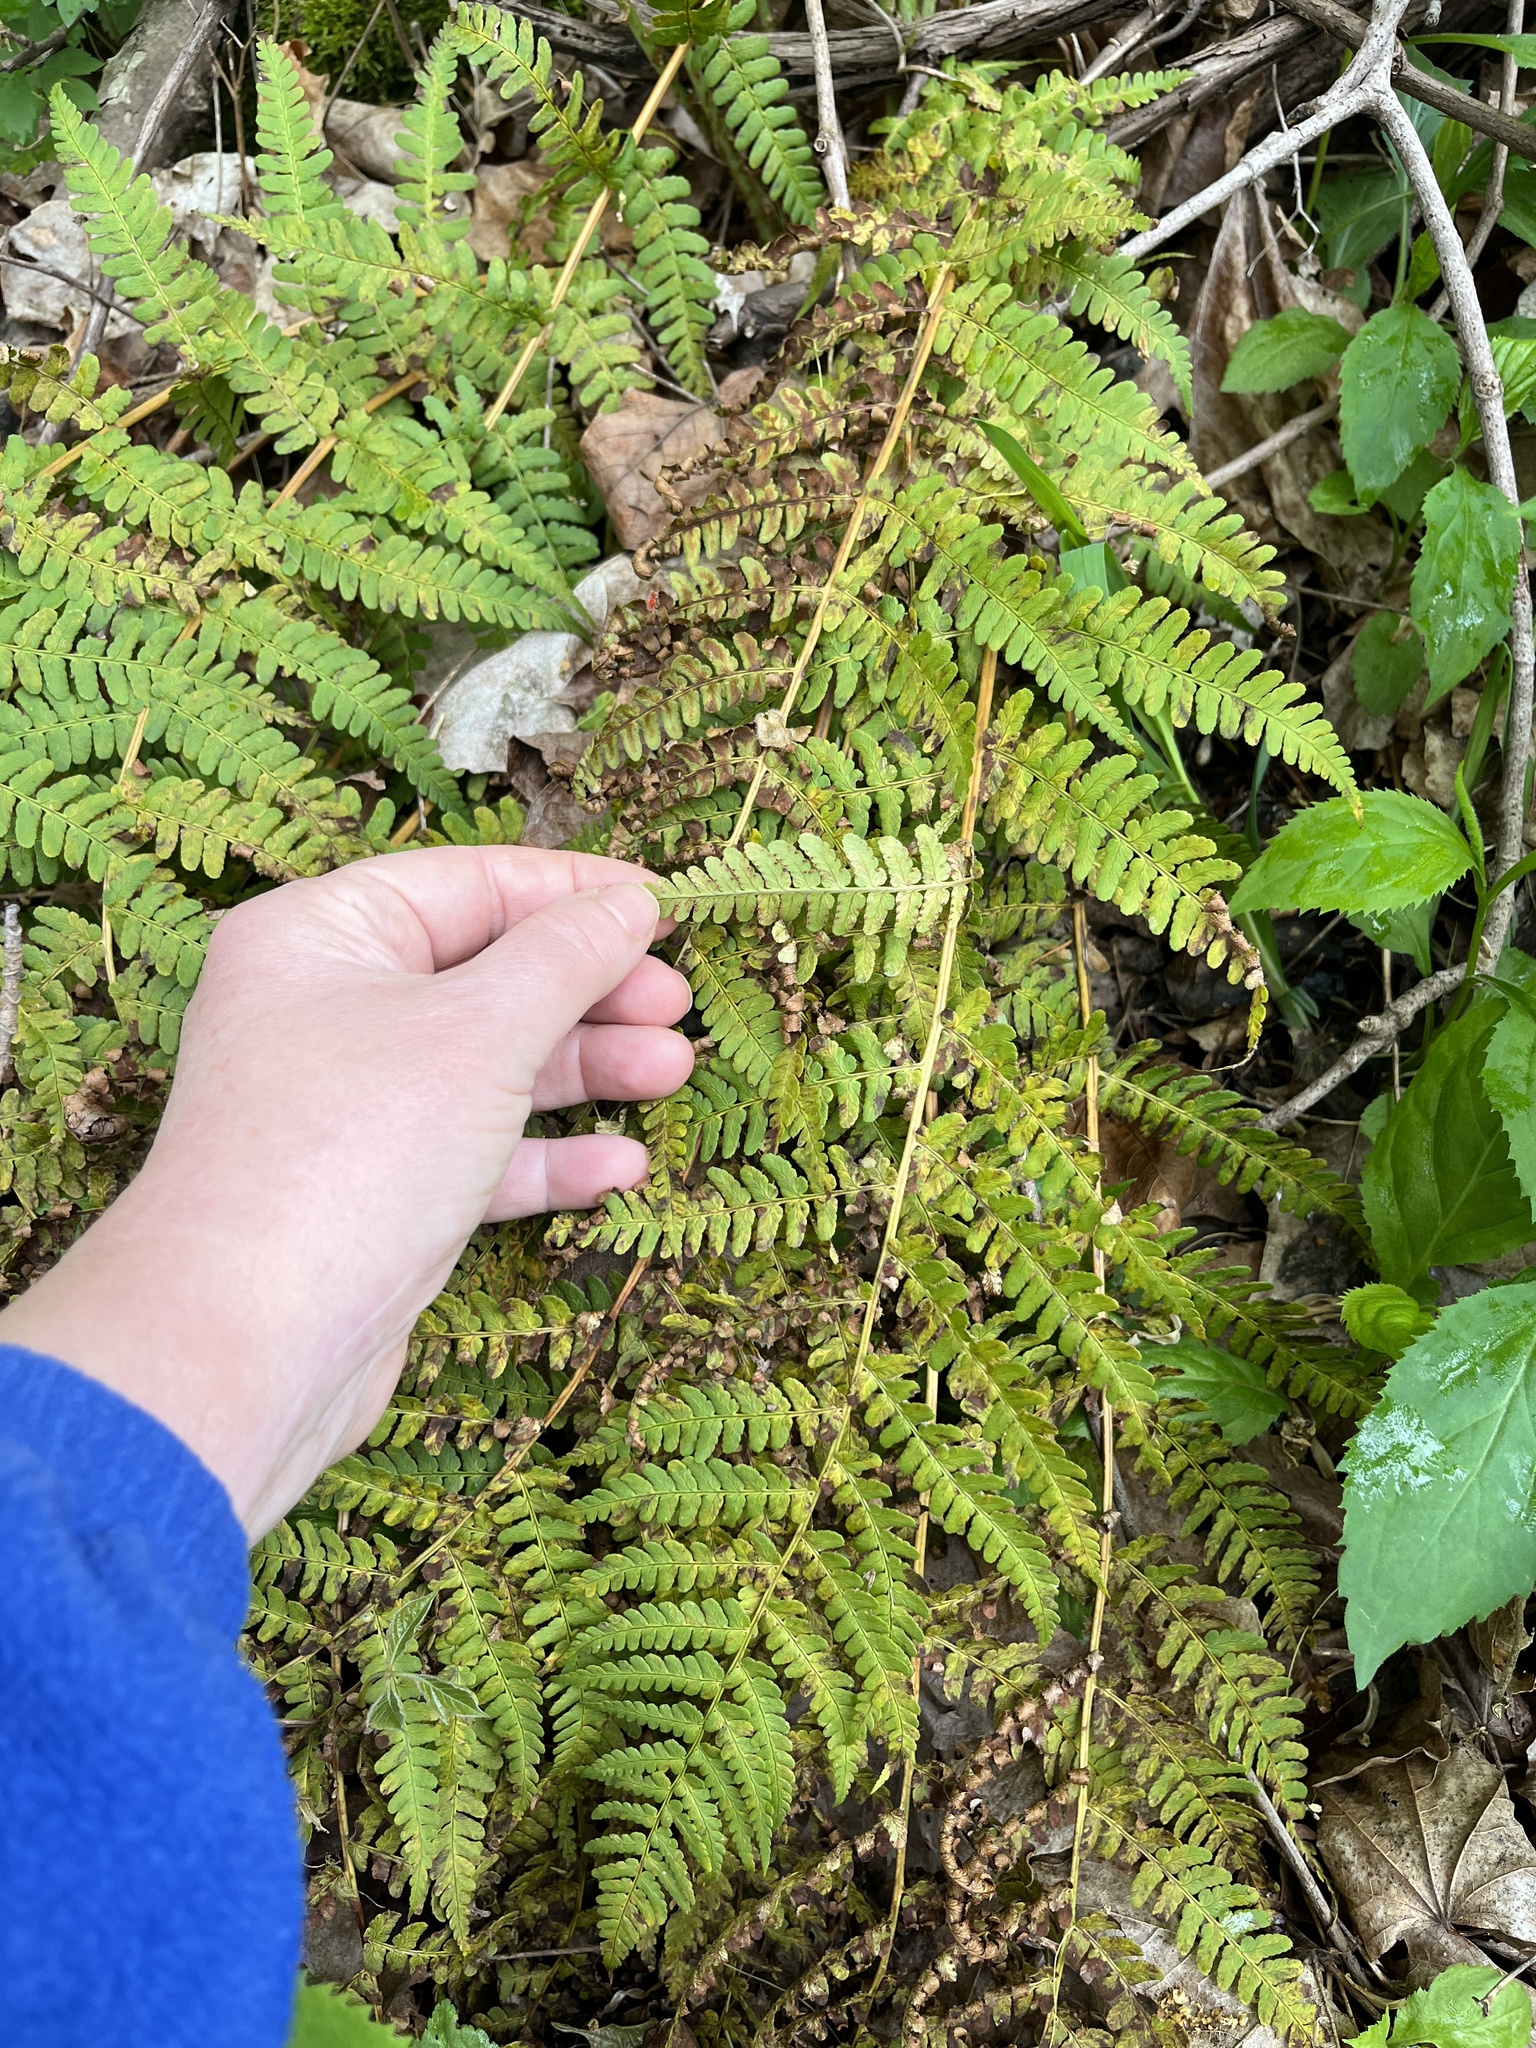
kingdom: Plantae
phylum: Tracheophyta
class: Polypodiopsida
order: Polypodiales
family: Dryopteridaceae
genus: Dryopteris
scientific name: Dryopteris marginalis
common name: Marginal wood fern
